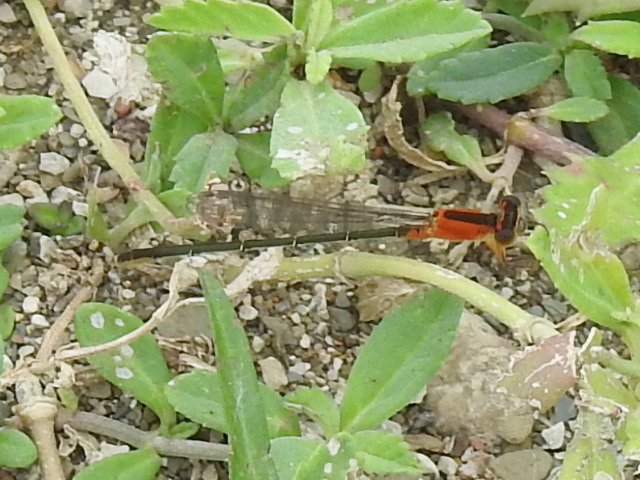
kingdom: Animalia
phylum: Arthropoda
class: Insecta
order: Odonata
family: Coenagrionidae
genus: Ischnura
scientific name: Ischnura ramburii
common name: Rambur's forktail
